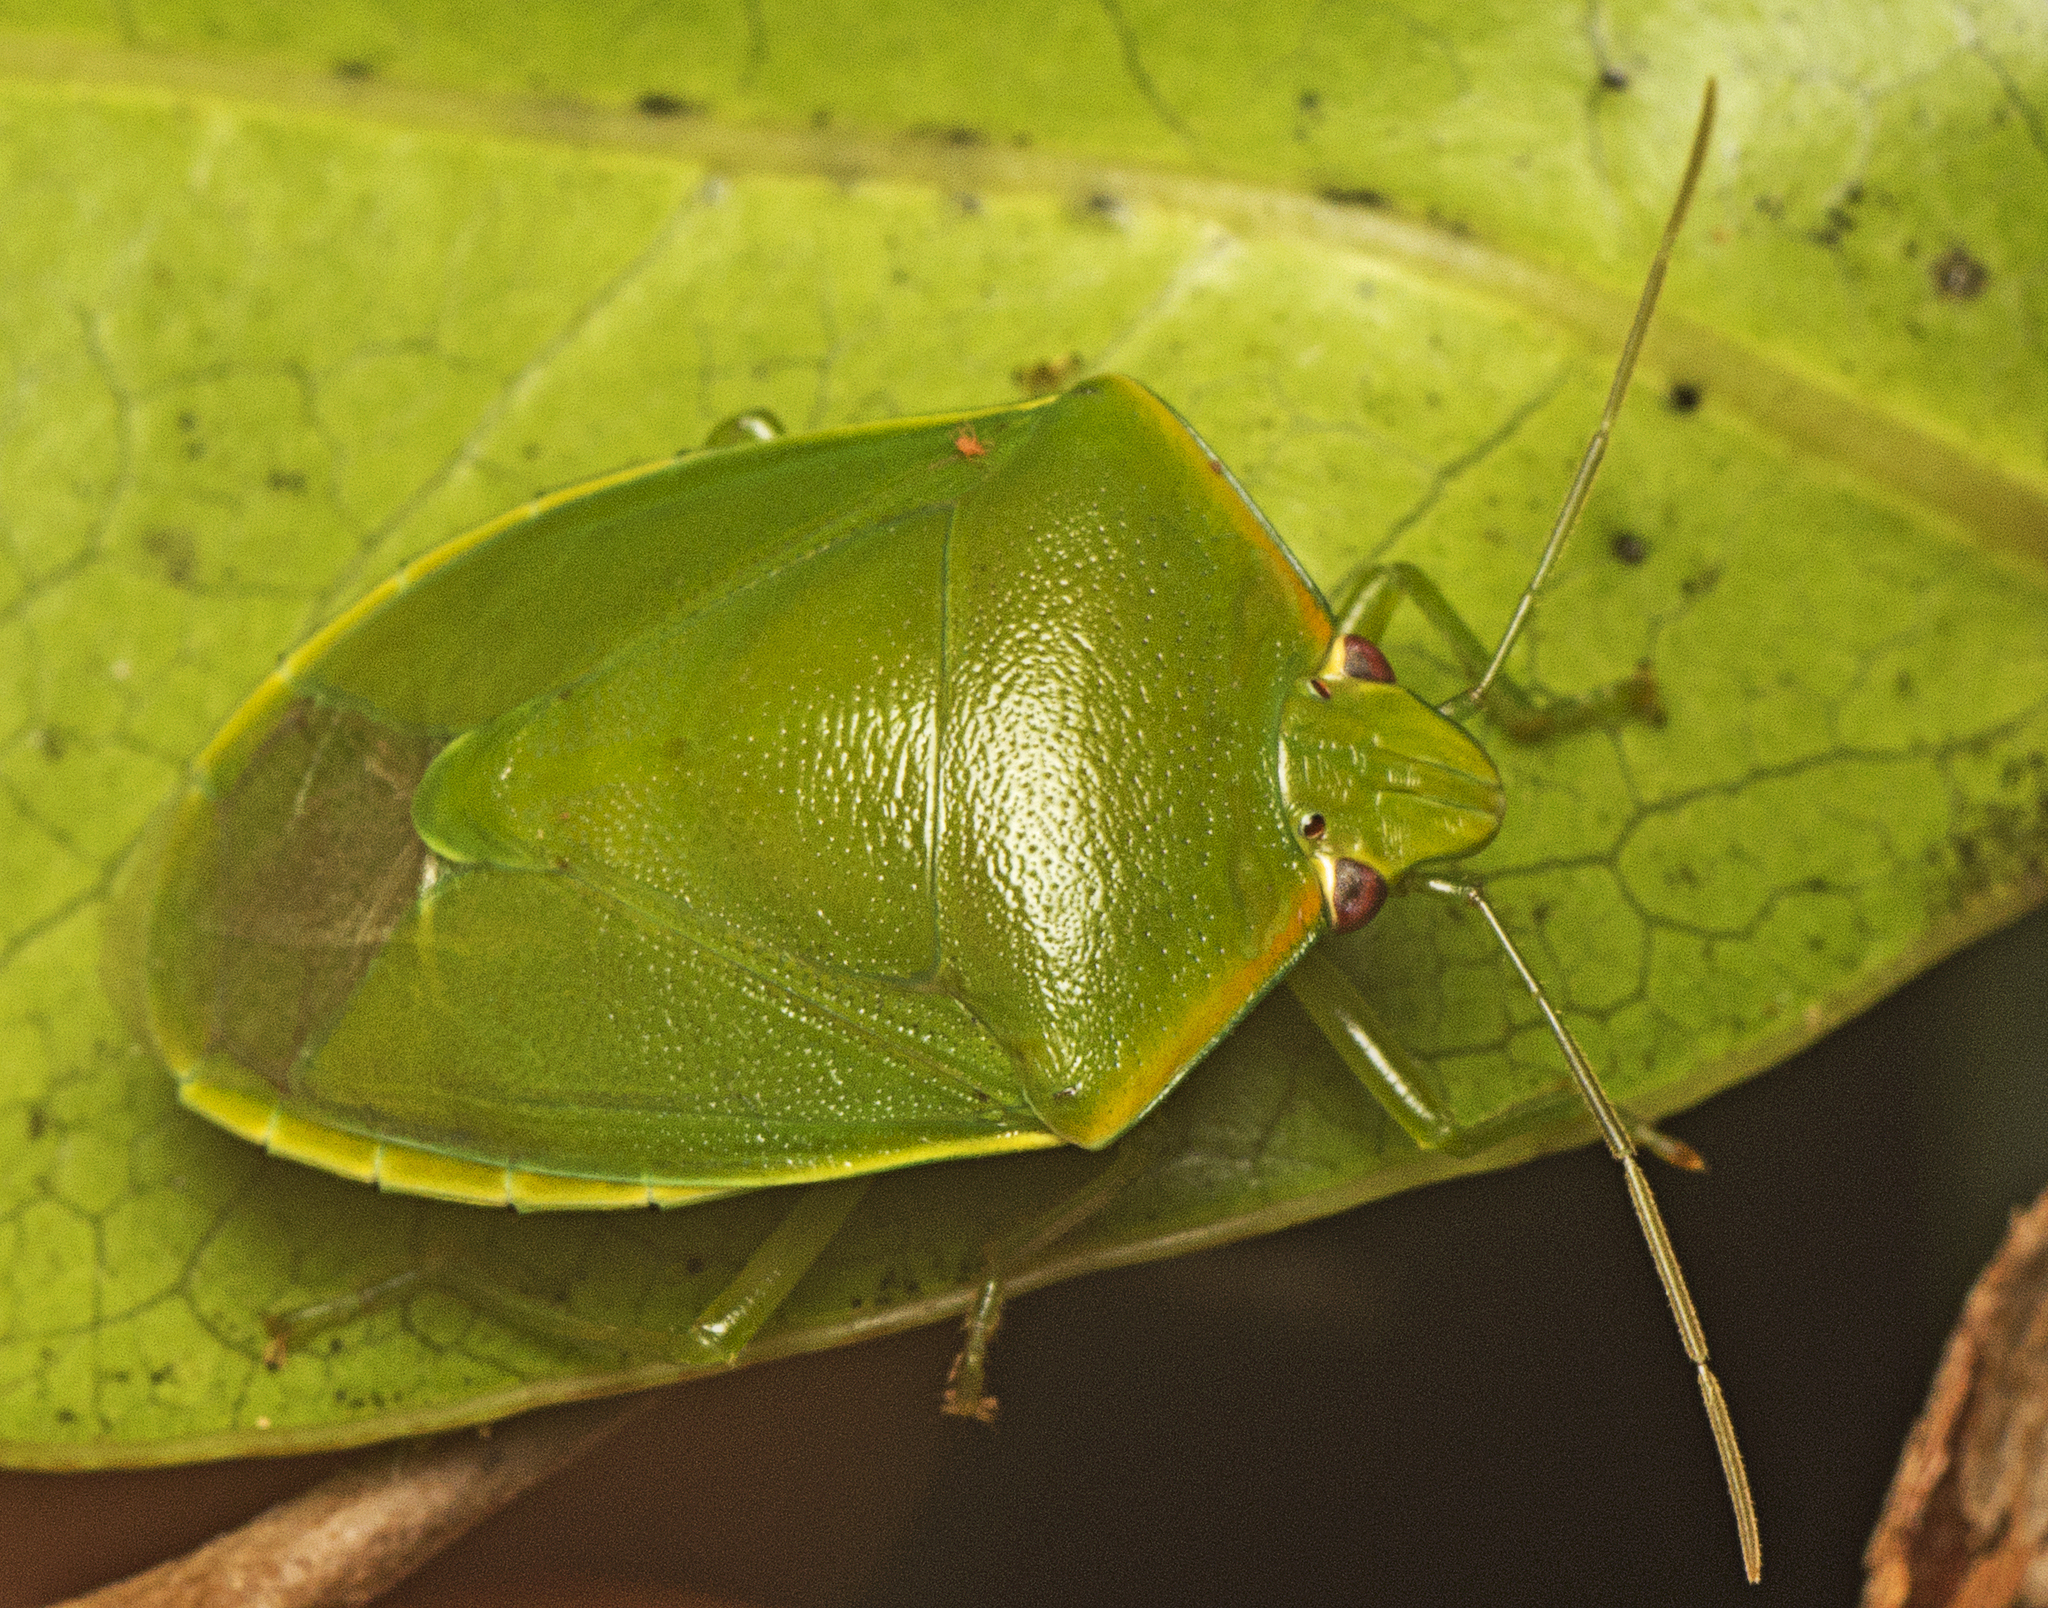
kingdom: Animalia
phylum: Arthropoda
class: Insecta
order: Hemiptera
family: Pentatomidae
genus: Glaucias
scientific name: Glaucias
